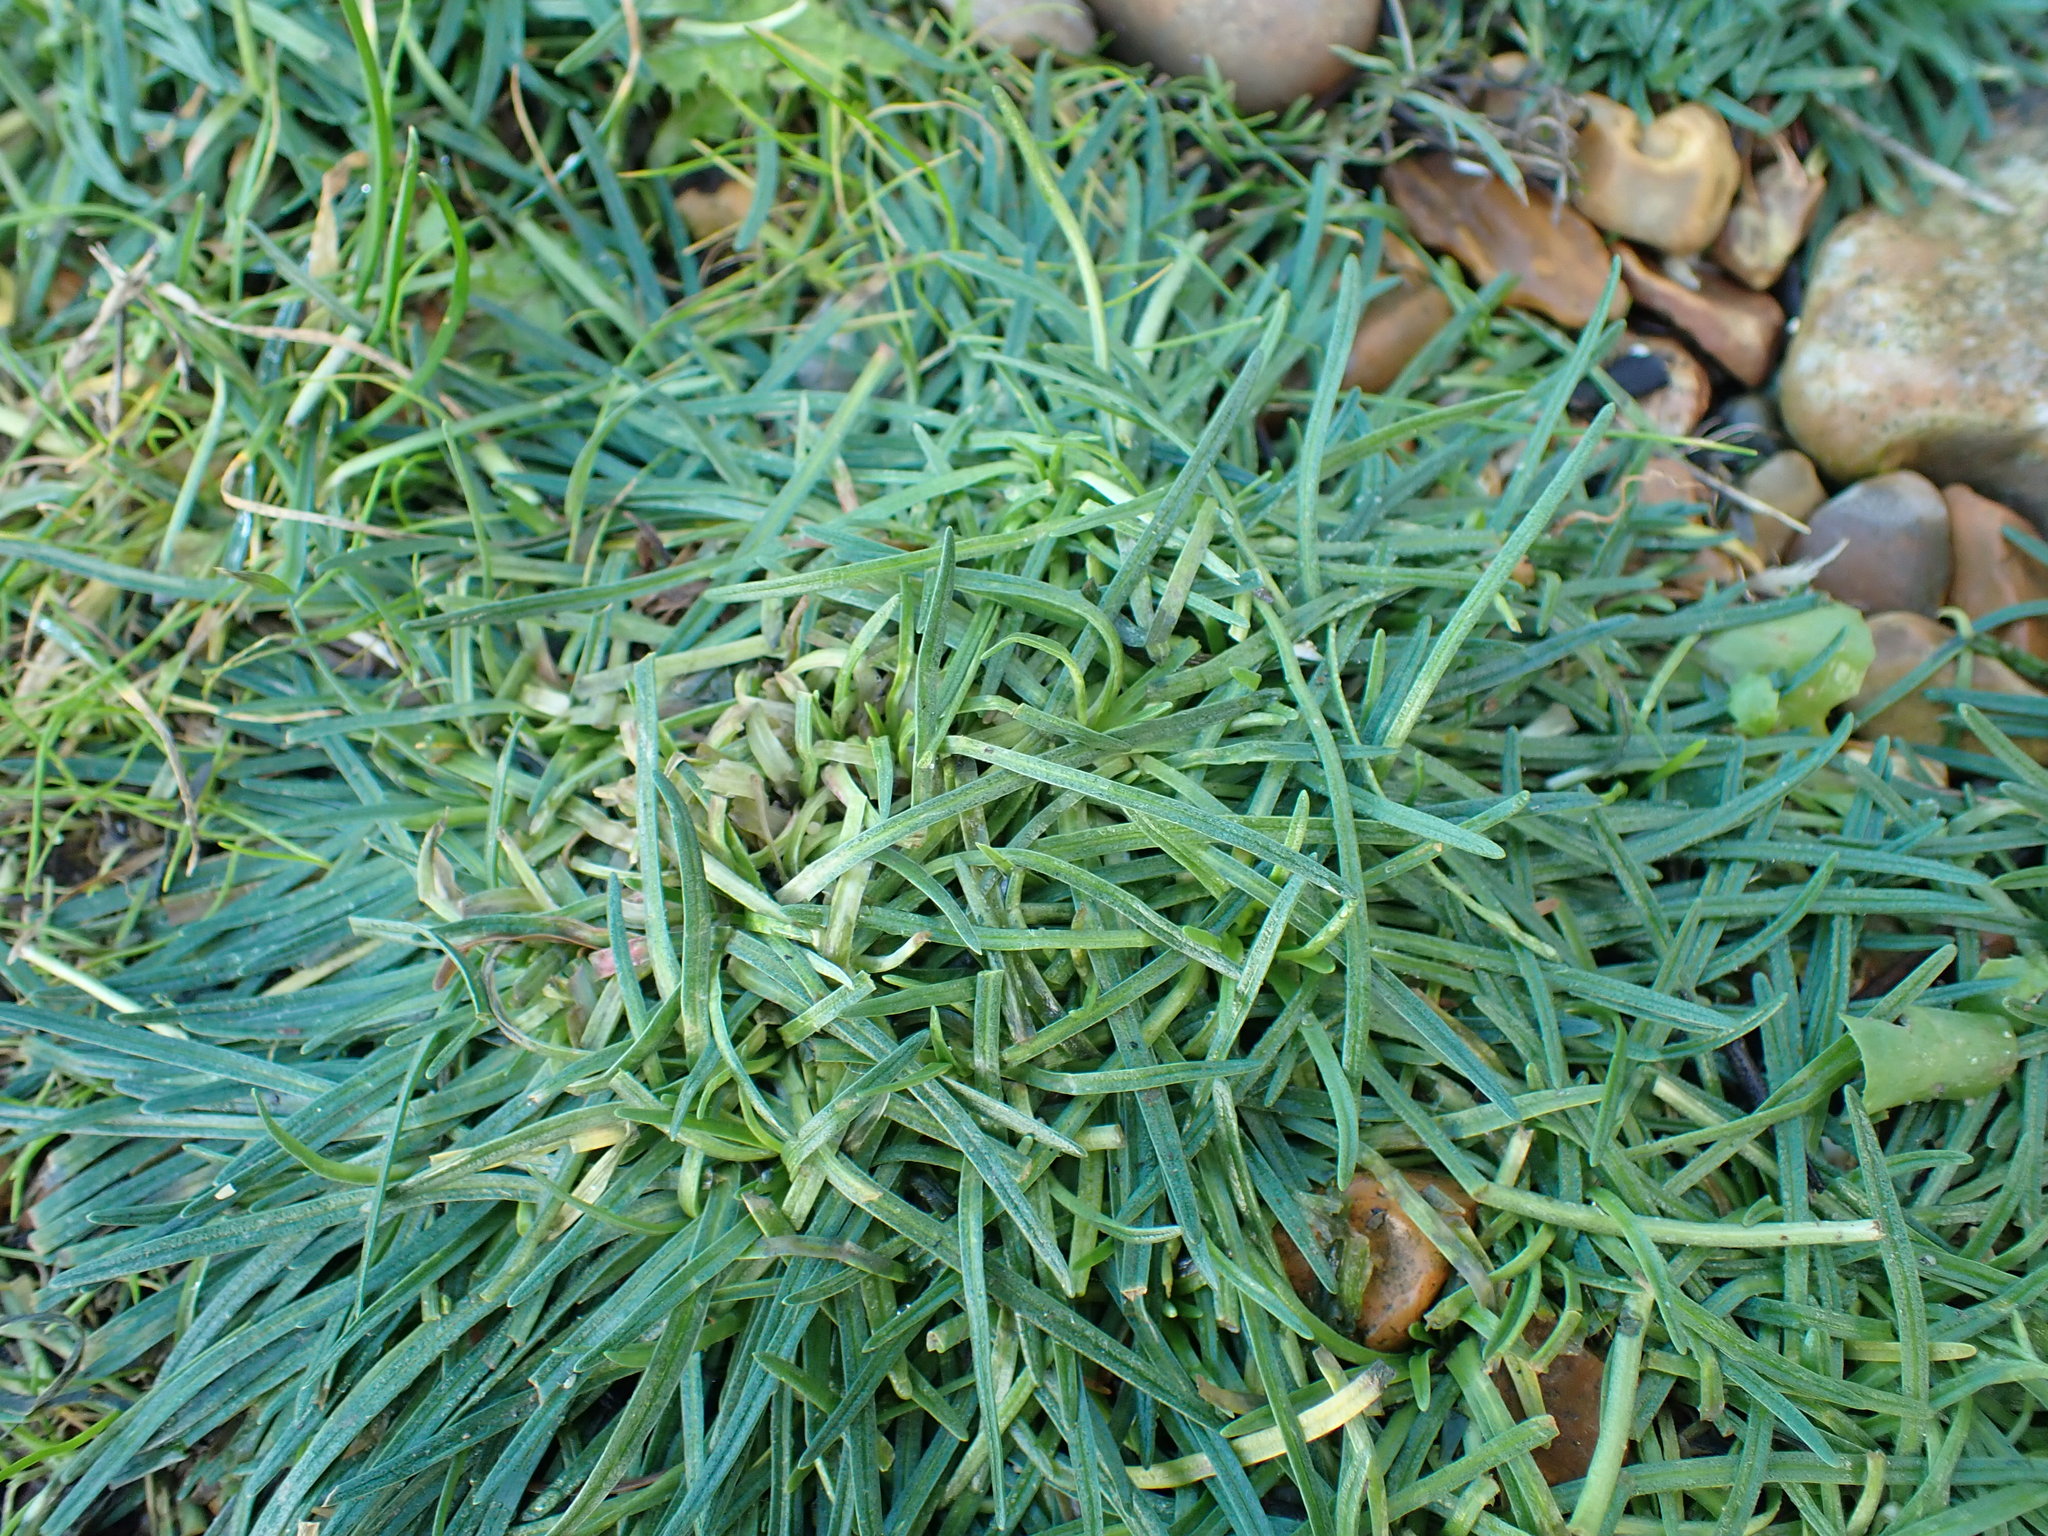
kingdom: Plantae
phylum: Tracheophyta
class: Magnoliopsida
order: Caryophyllales
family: Plumbaginaceae
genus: Armeria
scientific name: Armeria maritima
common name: Thrift
